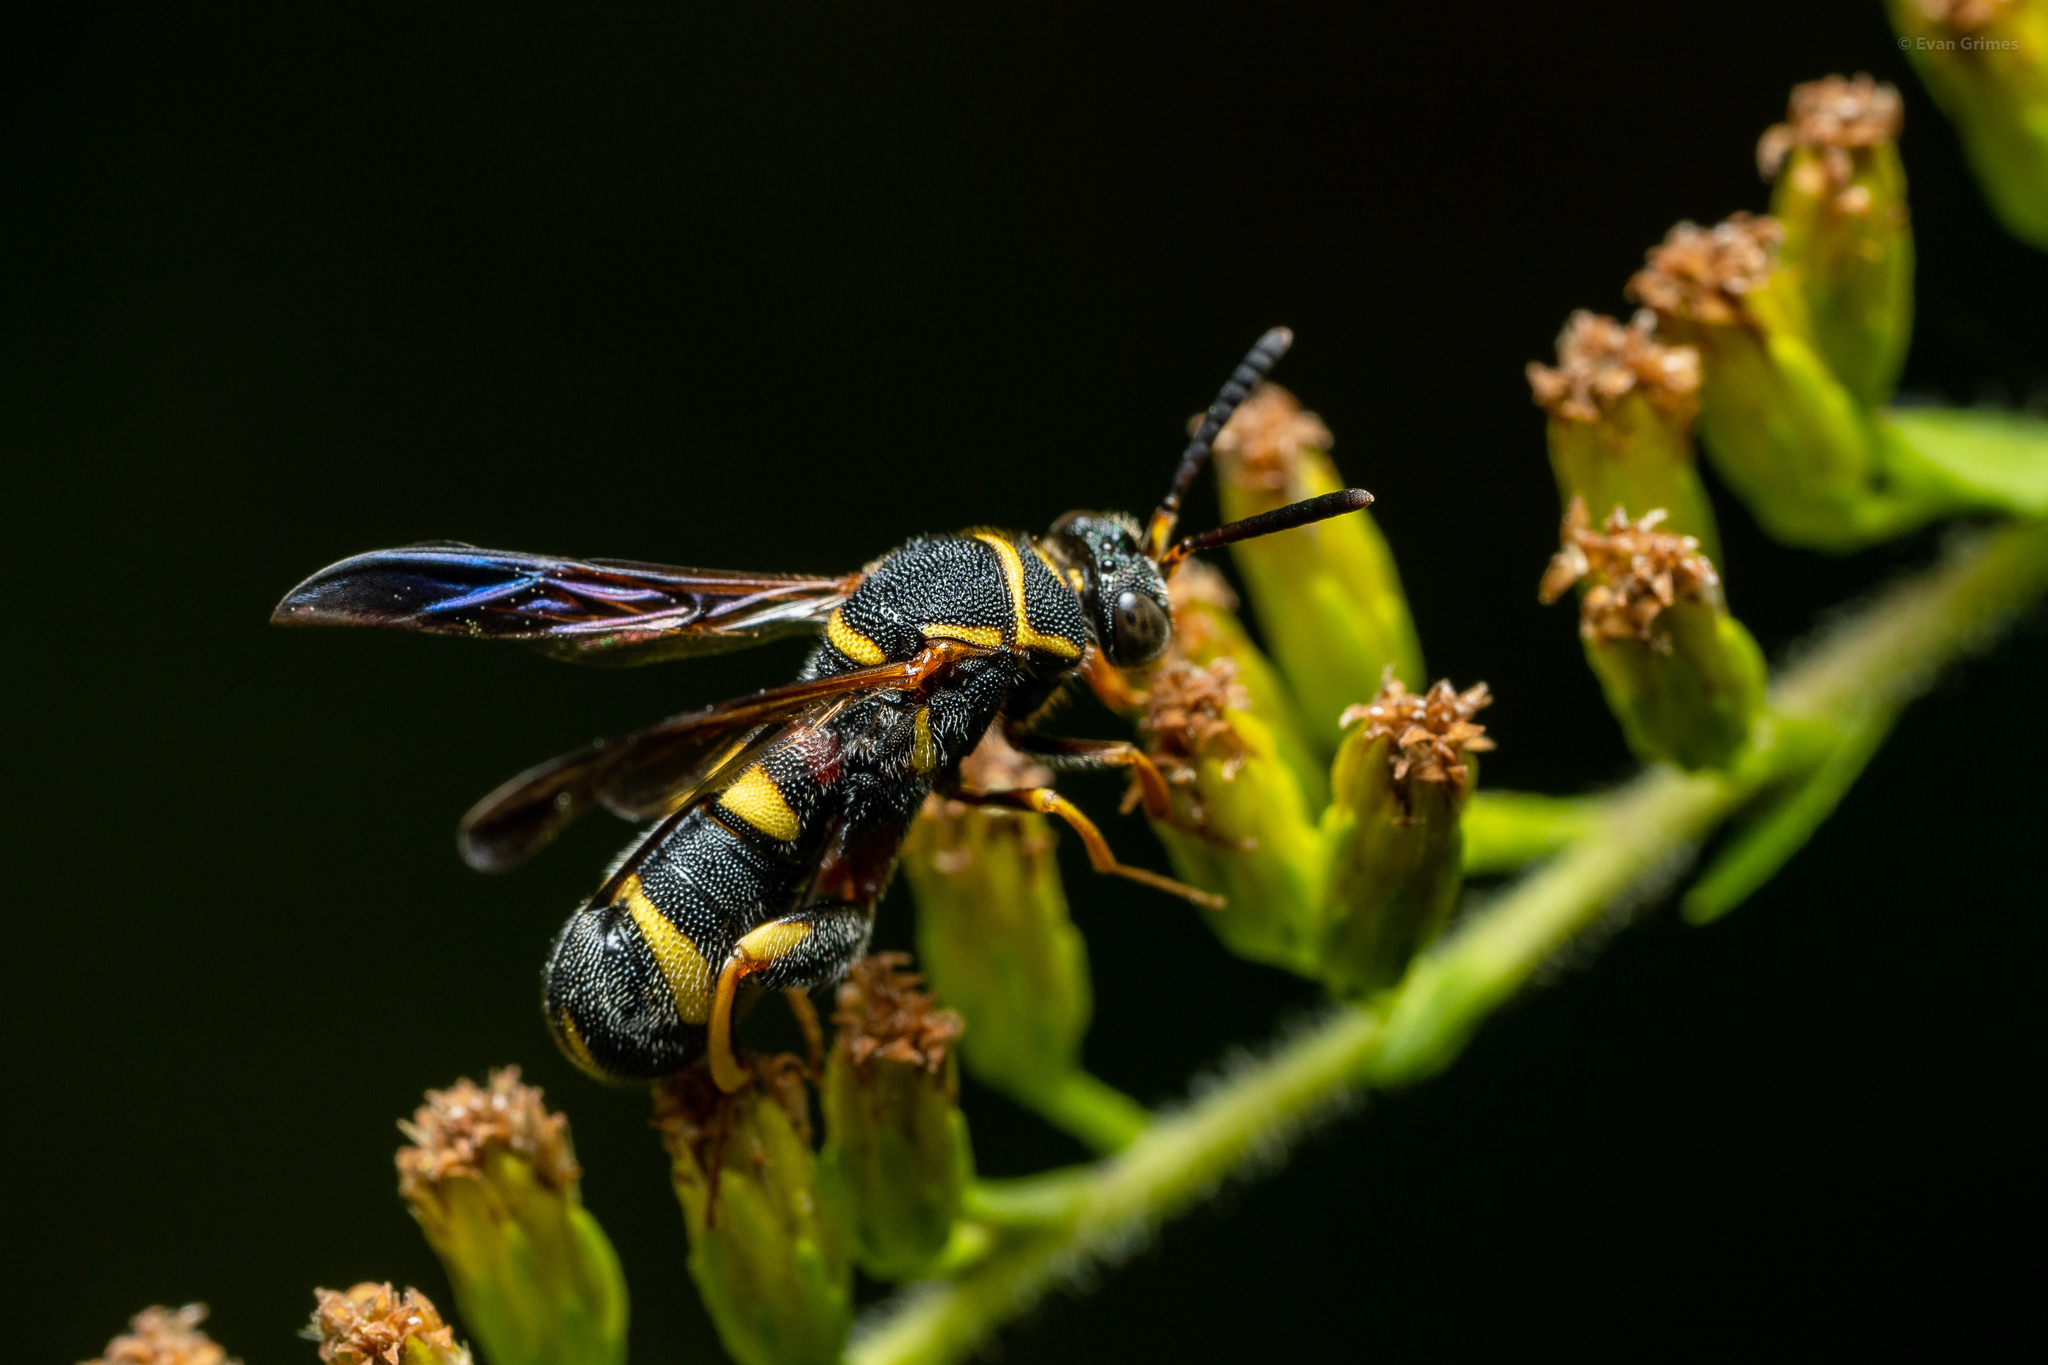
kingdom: Animalia
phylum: Arthropoda
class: Insecta
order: Hymenoptera
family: Leucospidae
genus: Leucospis
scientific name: Leucospis affinis
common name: Wasp
